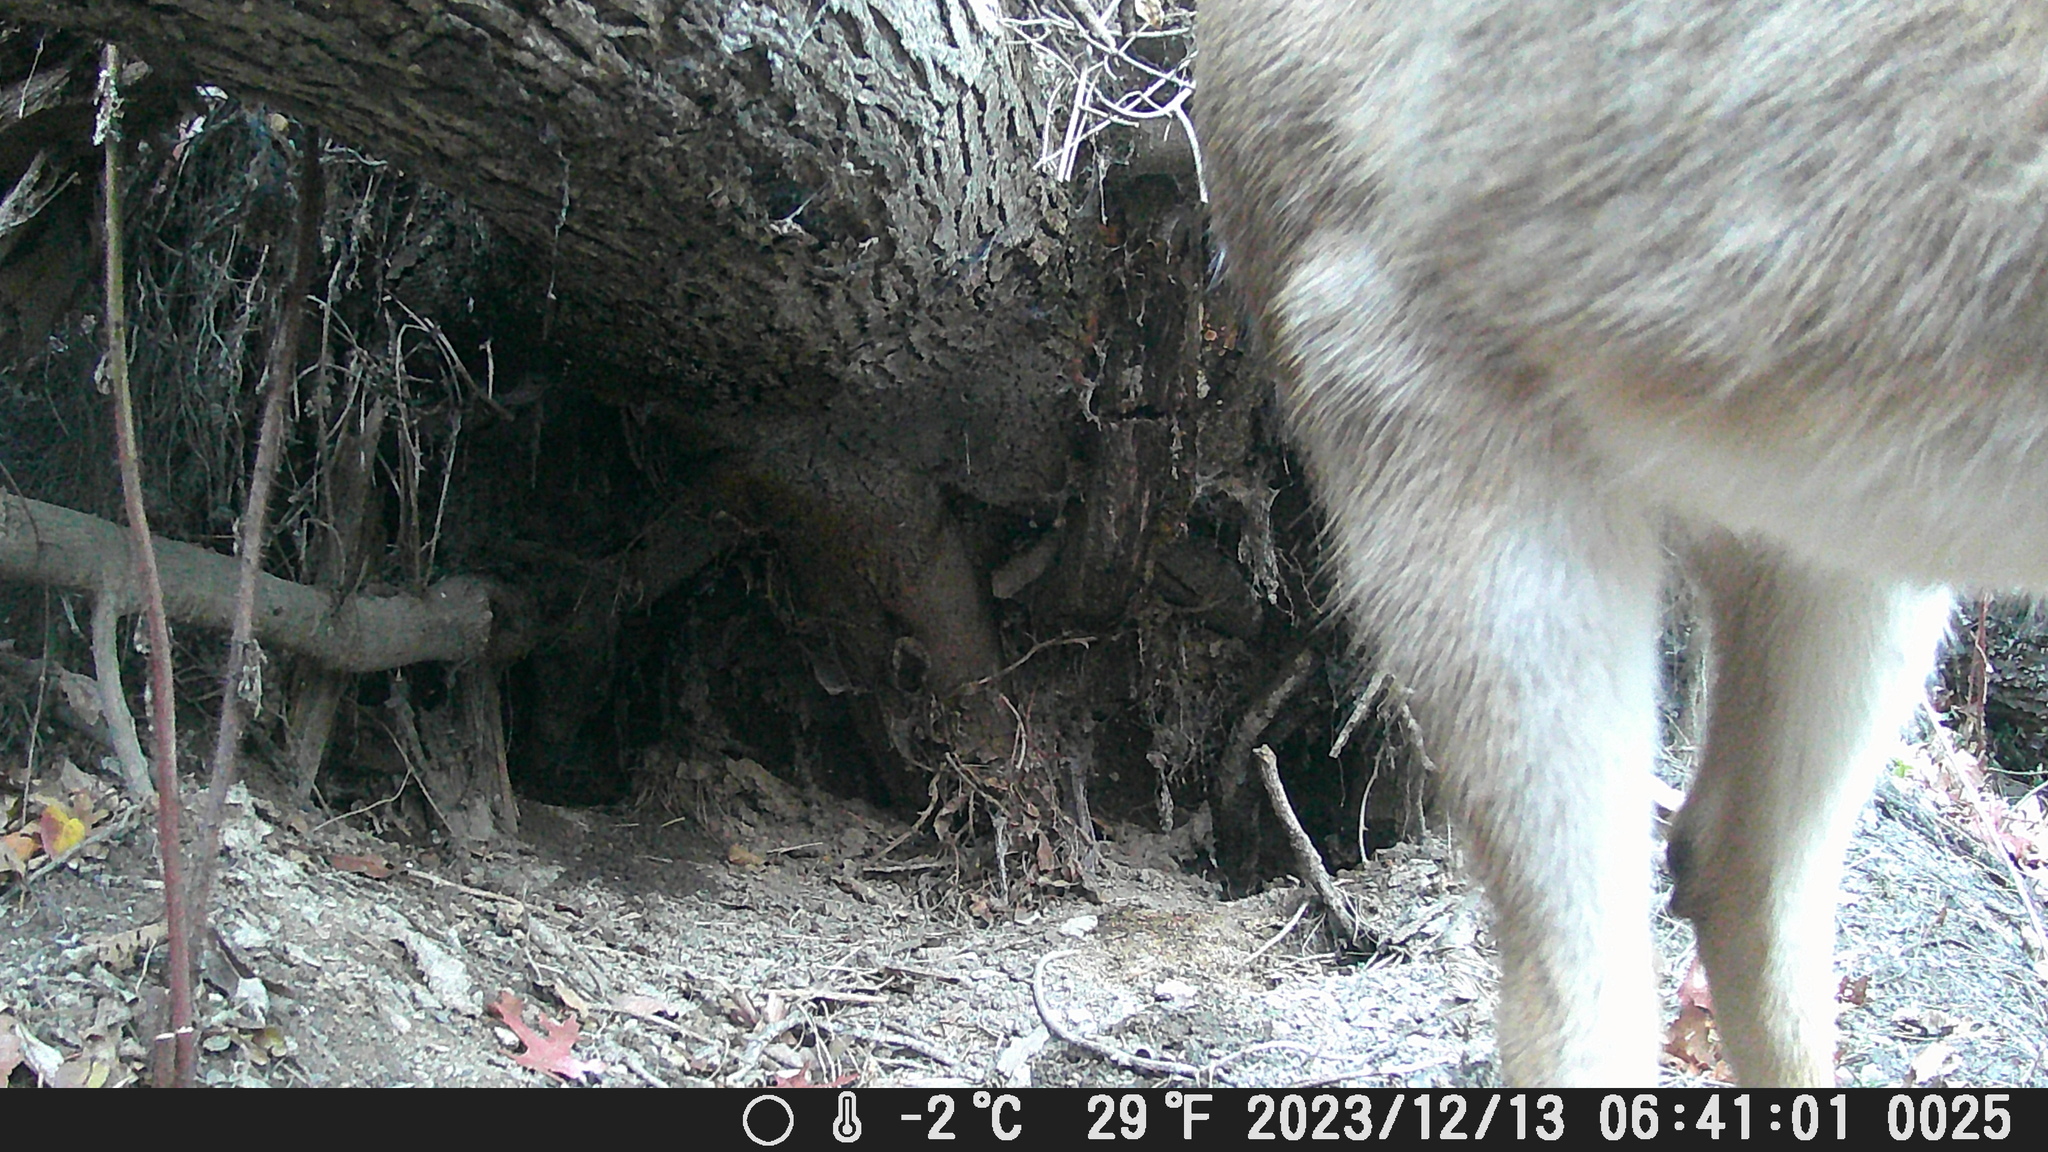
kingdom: Animalia
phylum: Chordata
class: Mammalia
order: Artiodactyla
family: Cervidae
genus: Odocoileus
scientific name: Odocoileus virginianus
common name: White-tailed deer
